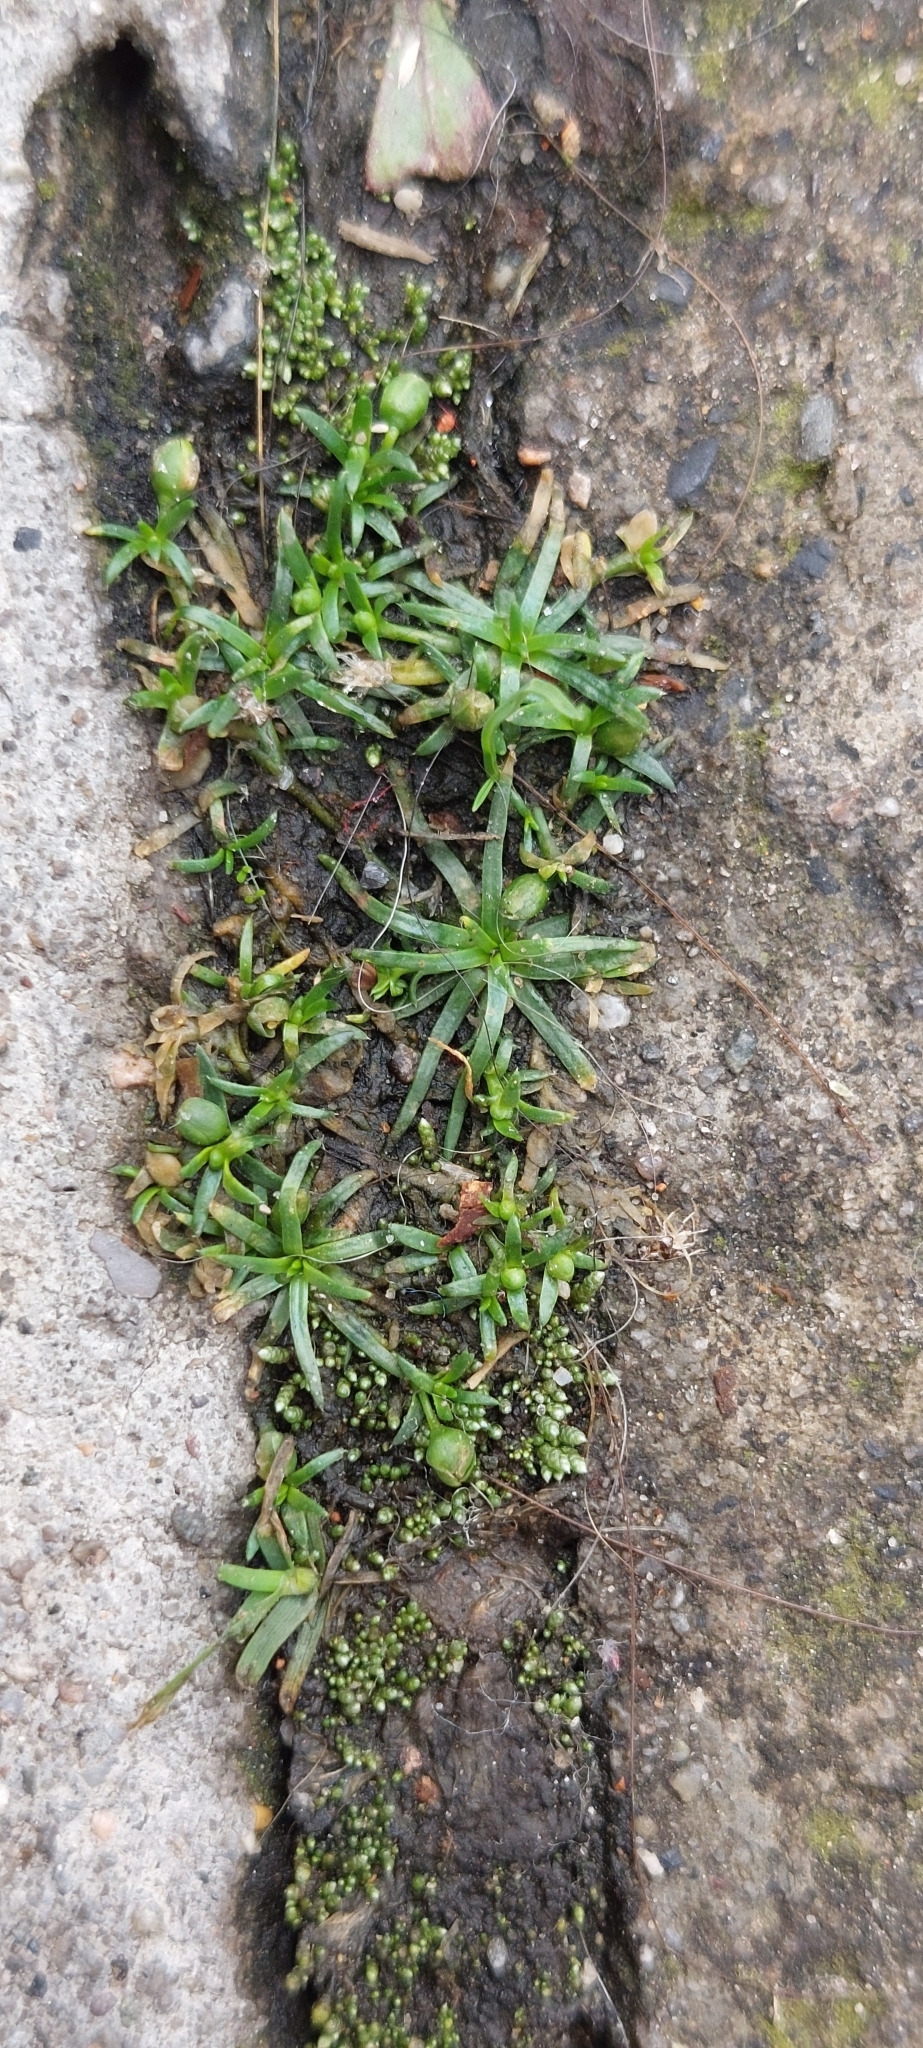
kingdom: Plantae
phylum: Tracheophyta
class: Magnoliopsida
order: Caryophyllales
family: Caryophyllaceae
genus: Sagina
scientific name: Sagina procumbens
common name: Procumbent pearlwort
